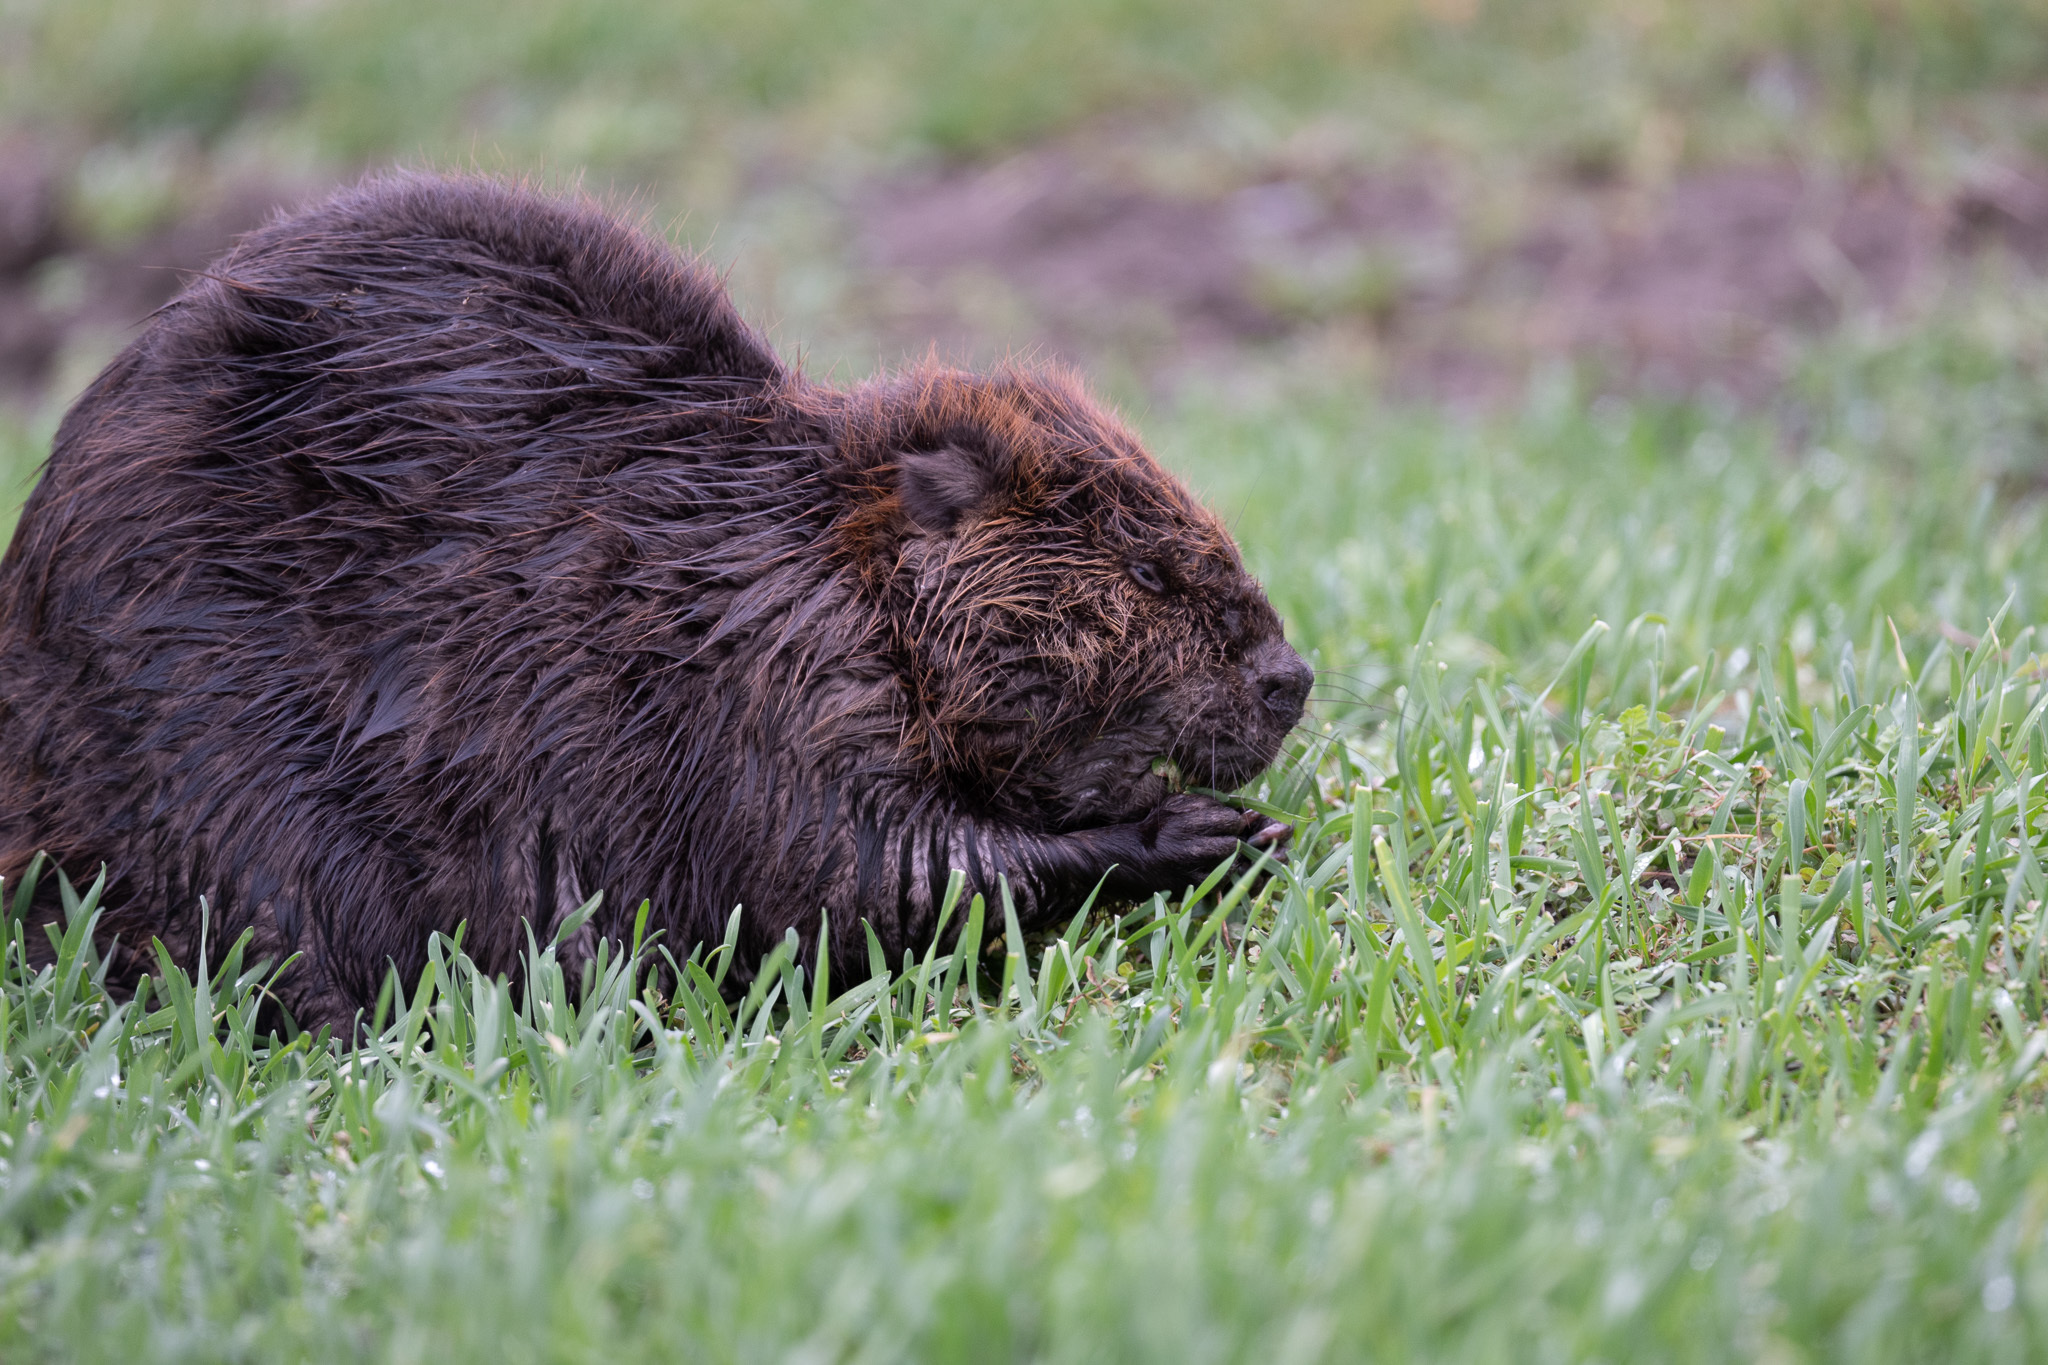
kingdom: Animalia
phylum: Chordata
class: Mammalia
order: Rodentia
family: Castoridae
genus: Castor
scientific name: Castor canadensis
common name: American beaver
